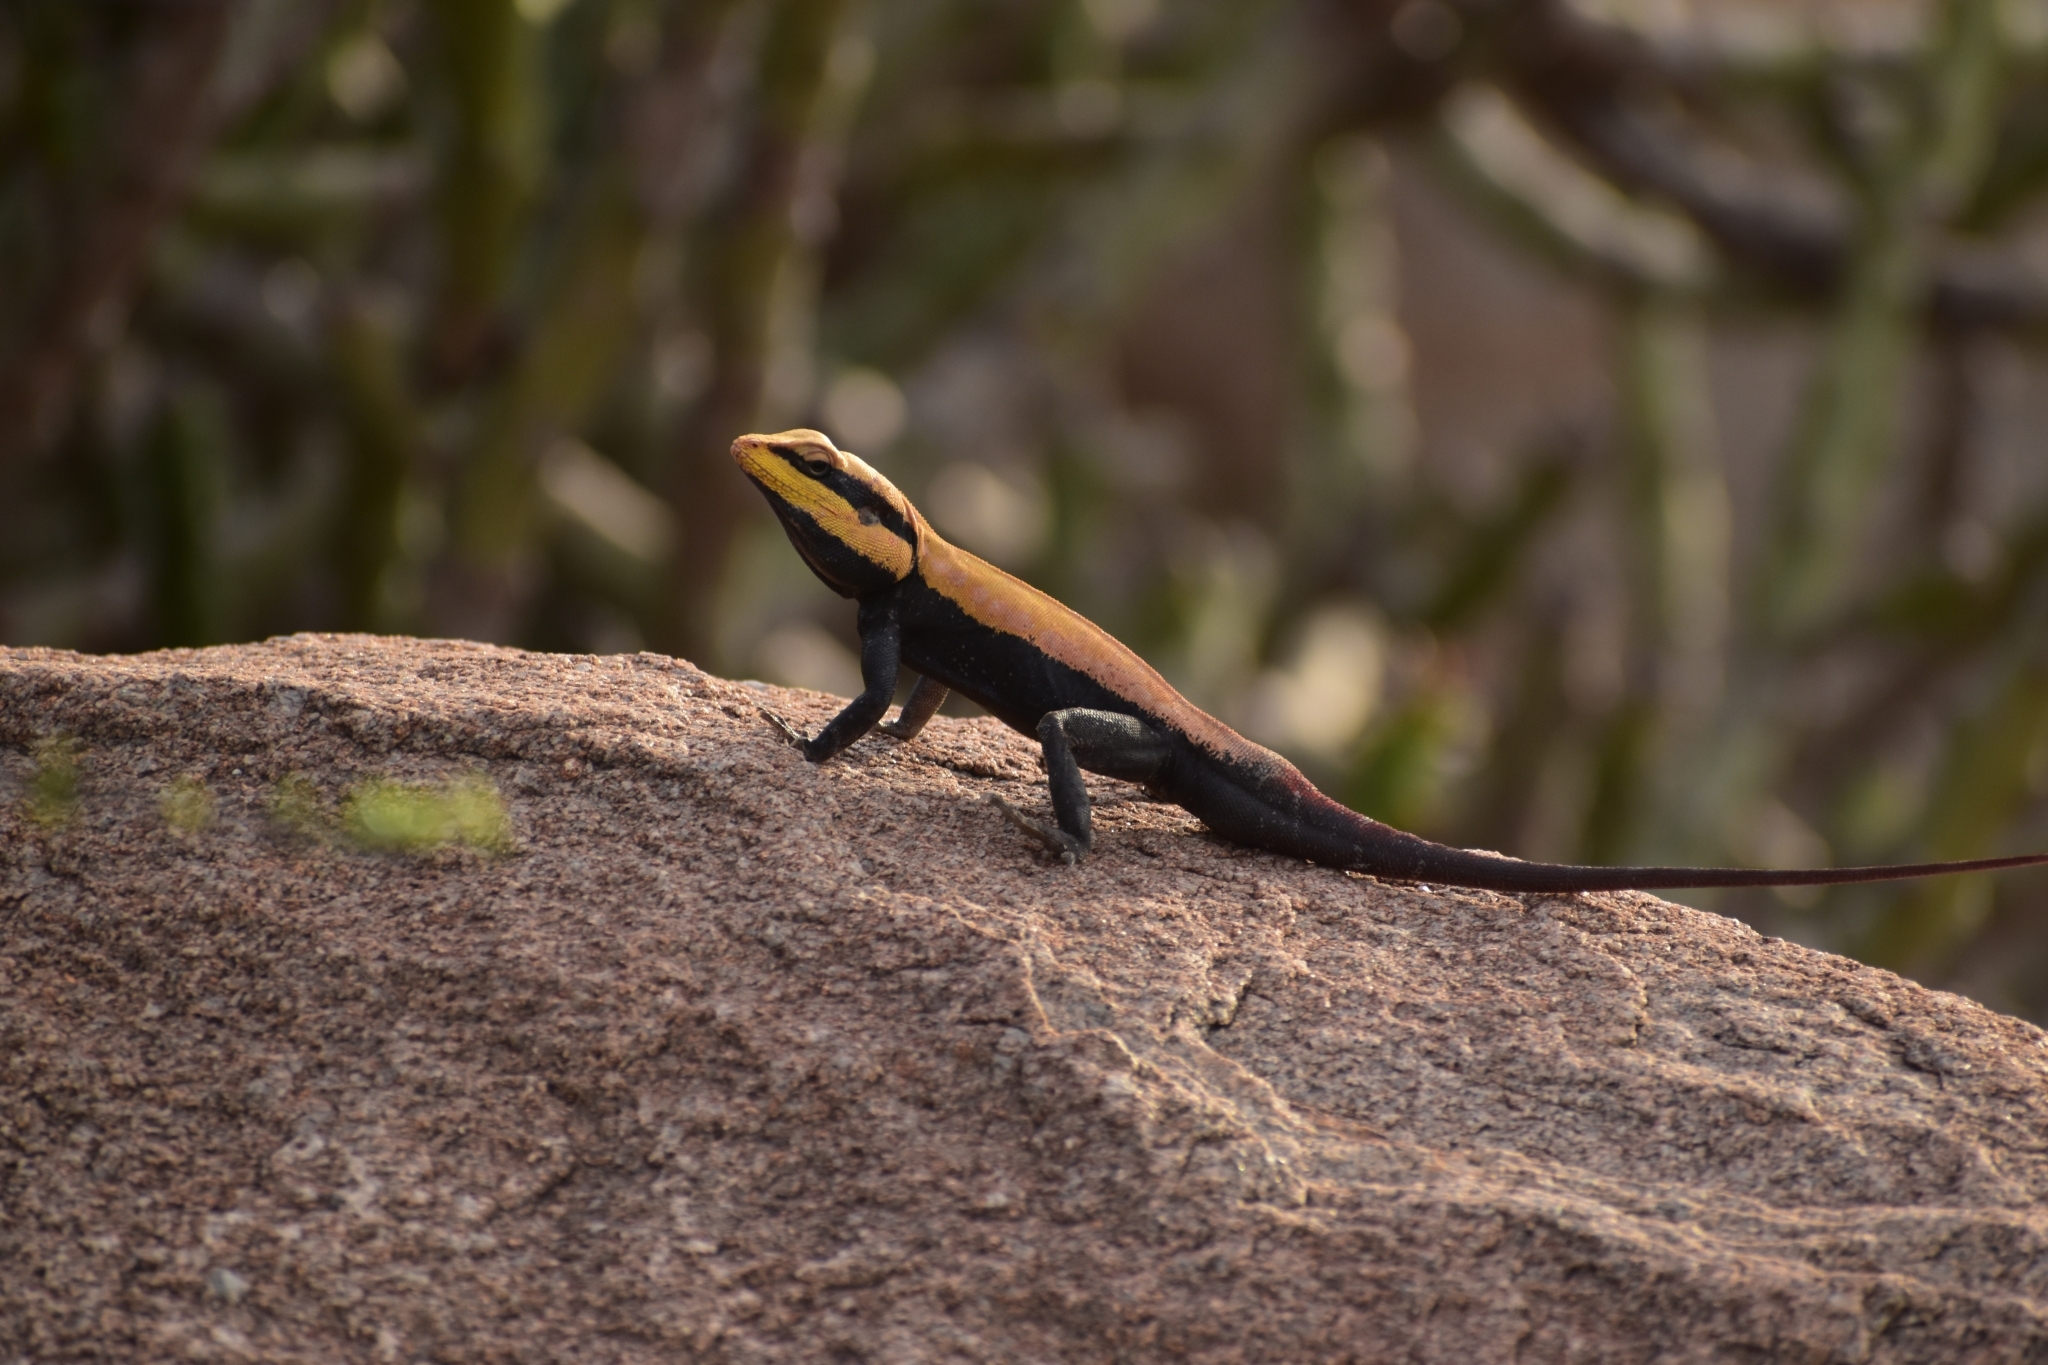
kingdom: Animalia
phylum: Chordata
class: Squamata
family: Agamidae
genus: Psammophilus
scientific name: Psammophilus dorsalis
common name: South indian rock agama
